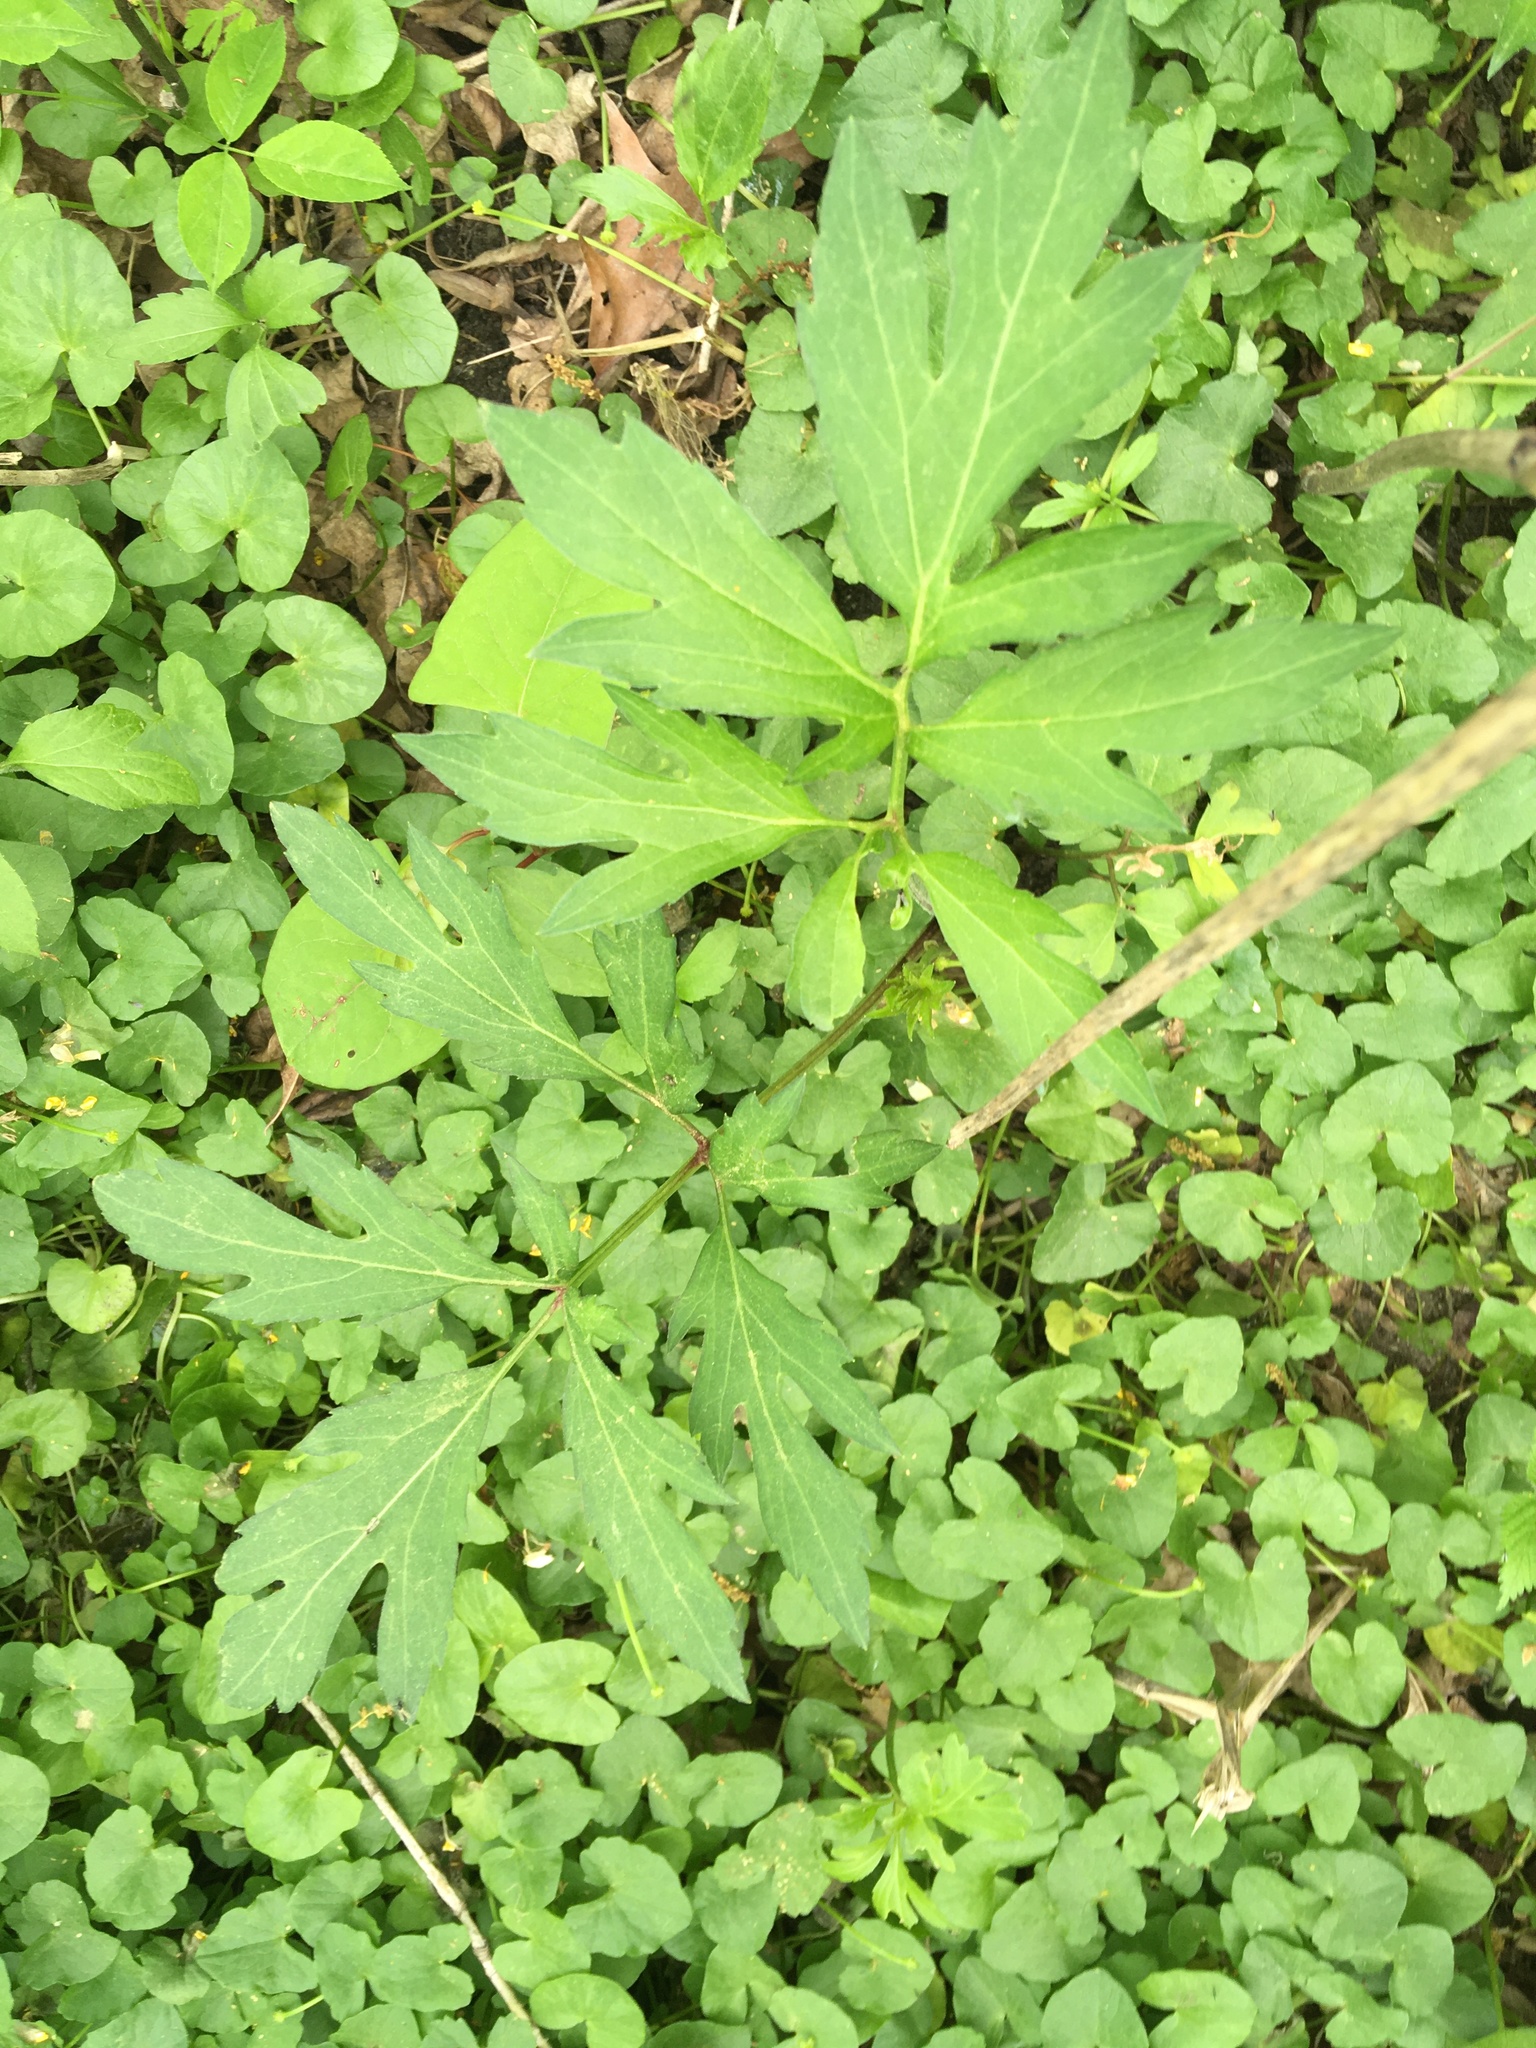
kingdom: Plantae
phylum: Tracheophyta
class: Magnoliopsida
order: Asterales
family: Asteraceae
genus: Rudbeckia
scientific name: Rudbeckia laciniata
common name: Coneflower
